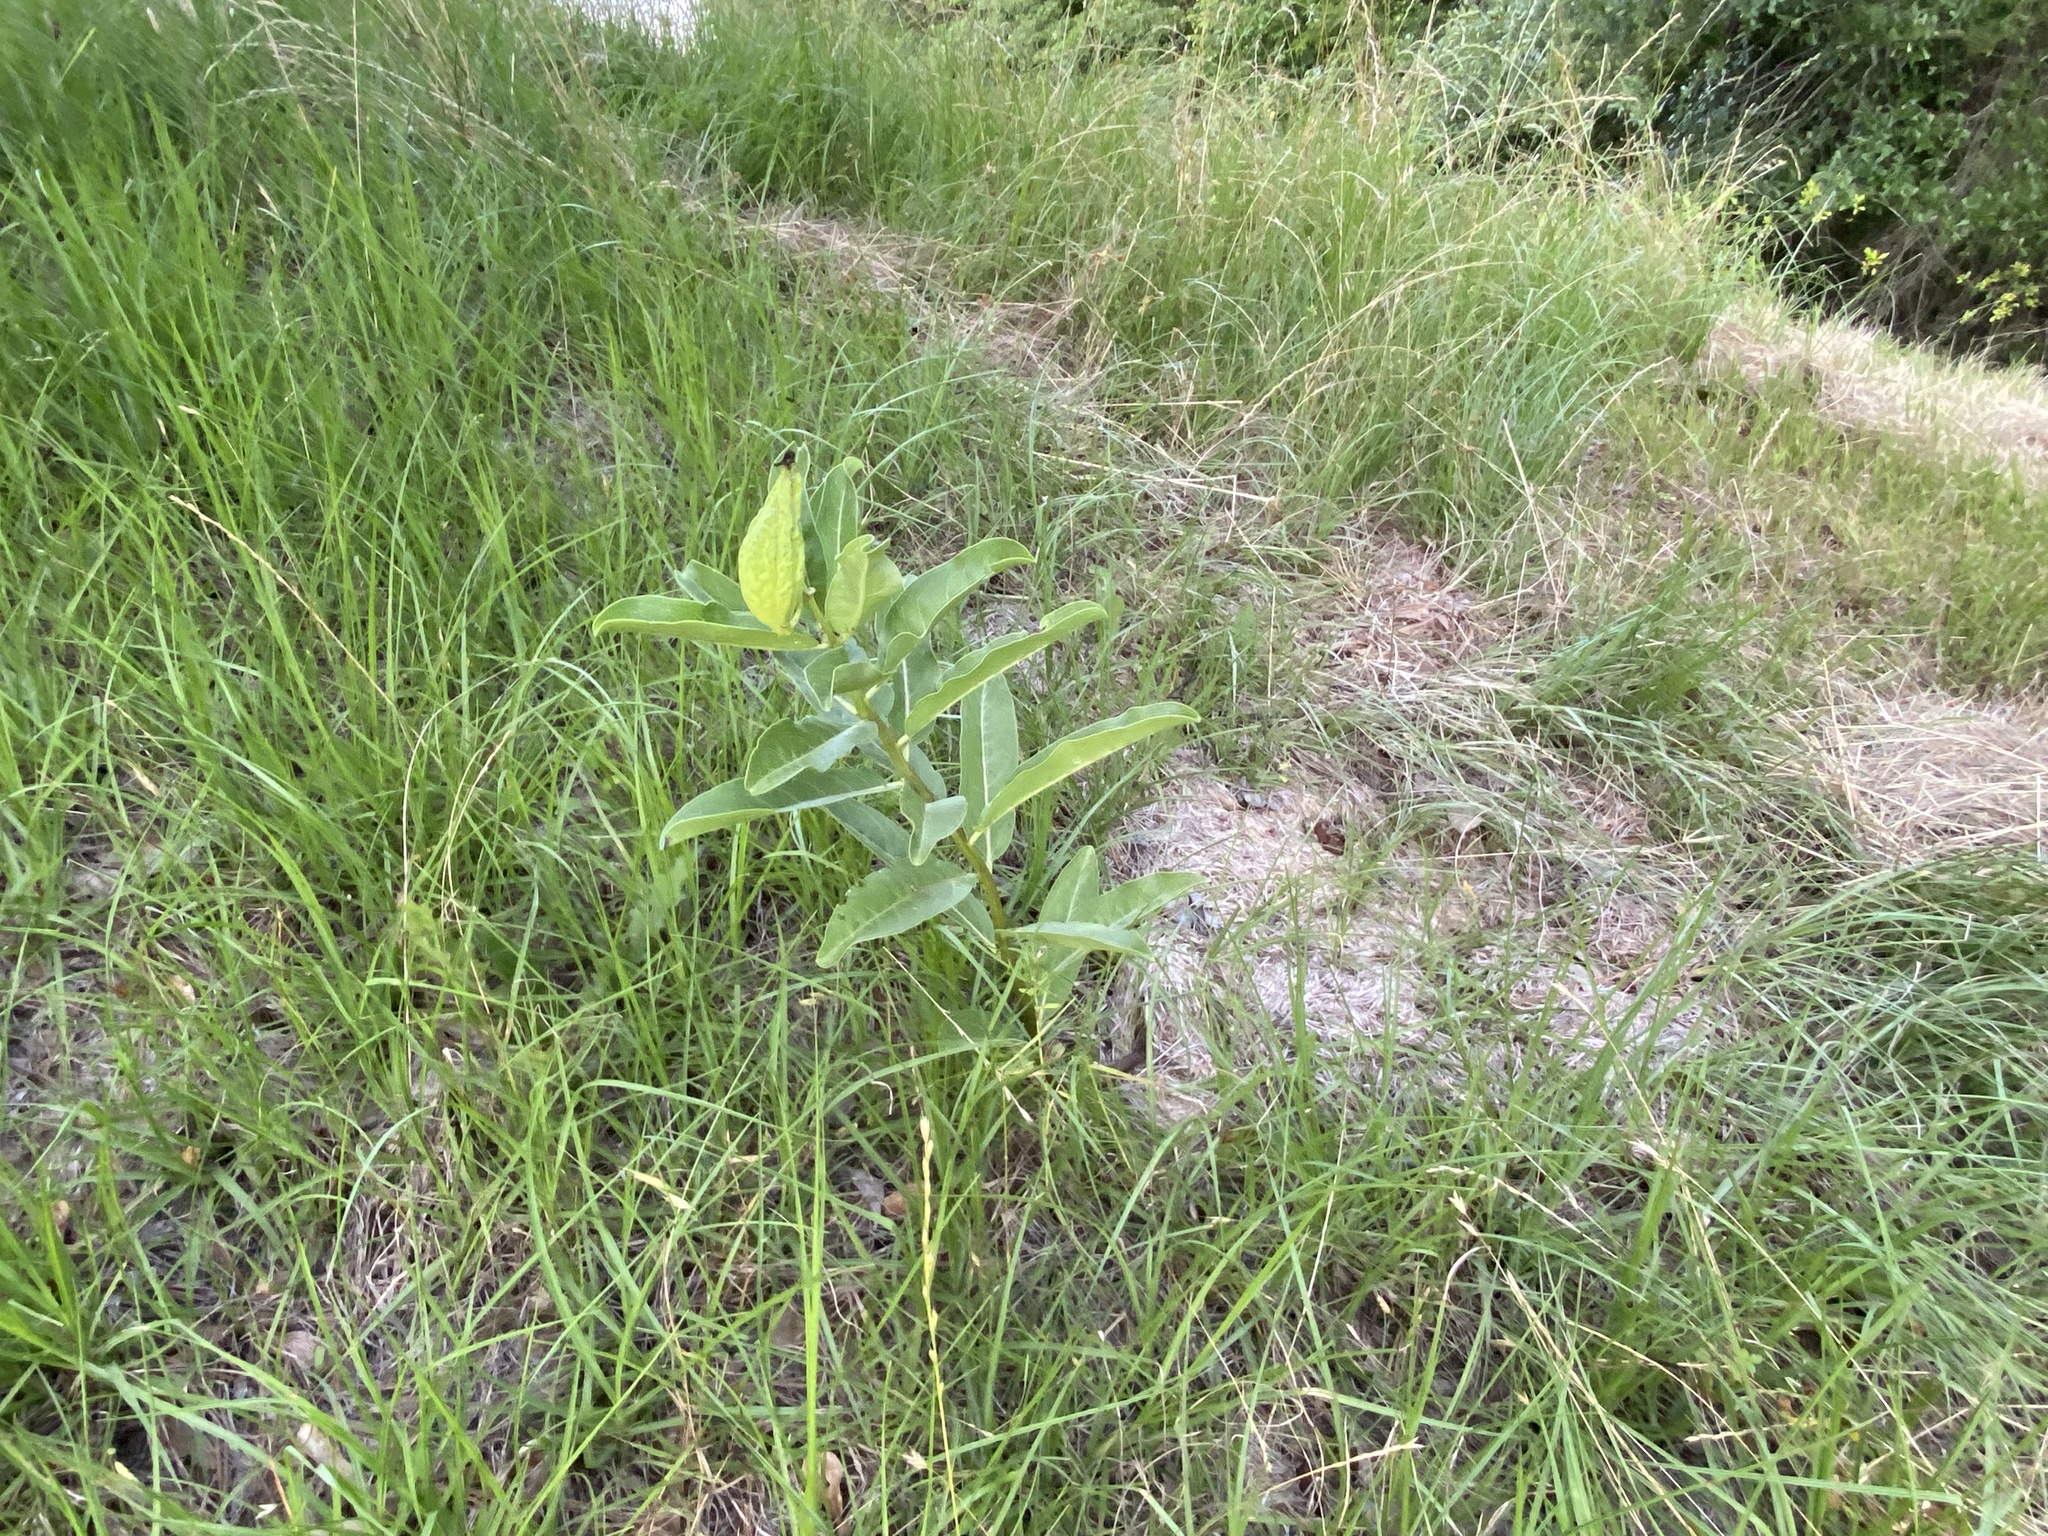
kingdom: Plantae
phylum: Tracheophyta
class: Magnoliopsida
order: Gentianales
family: Apocynaceae
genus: Asclepias
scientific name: Asclepias viridis
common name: Antelope-horns
